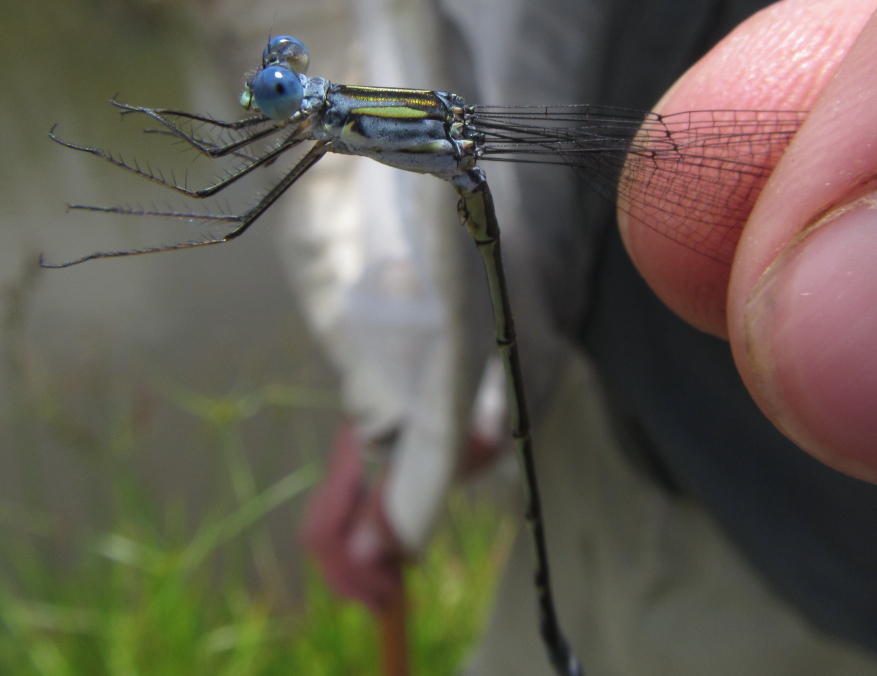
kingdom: Animalia
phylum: Arthropoda
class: Insecta
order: Odonata
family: Lestidae
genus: Lestes
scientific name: Lestes plagiatus
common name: Highland spreadwing
